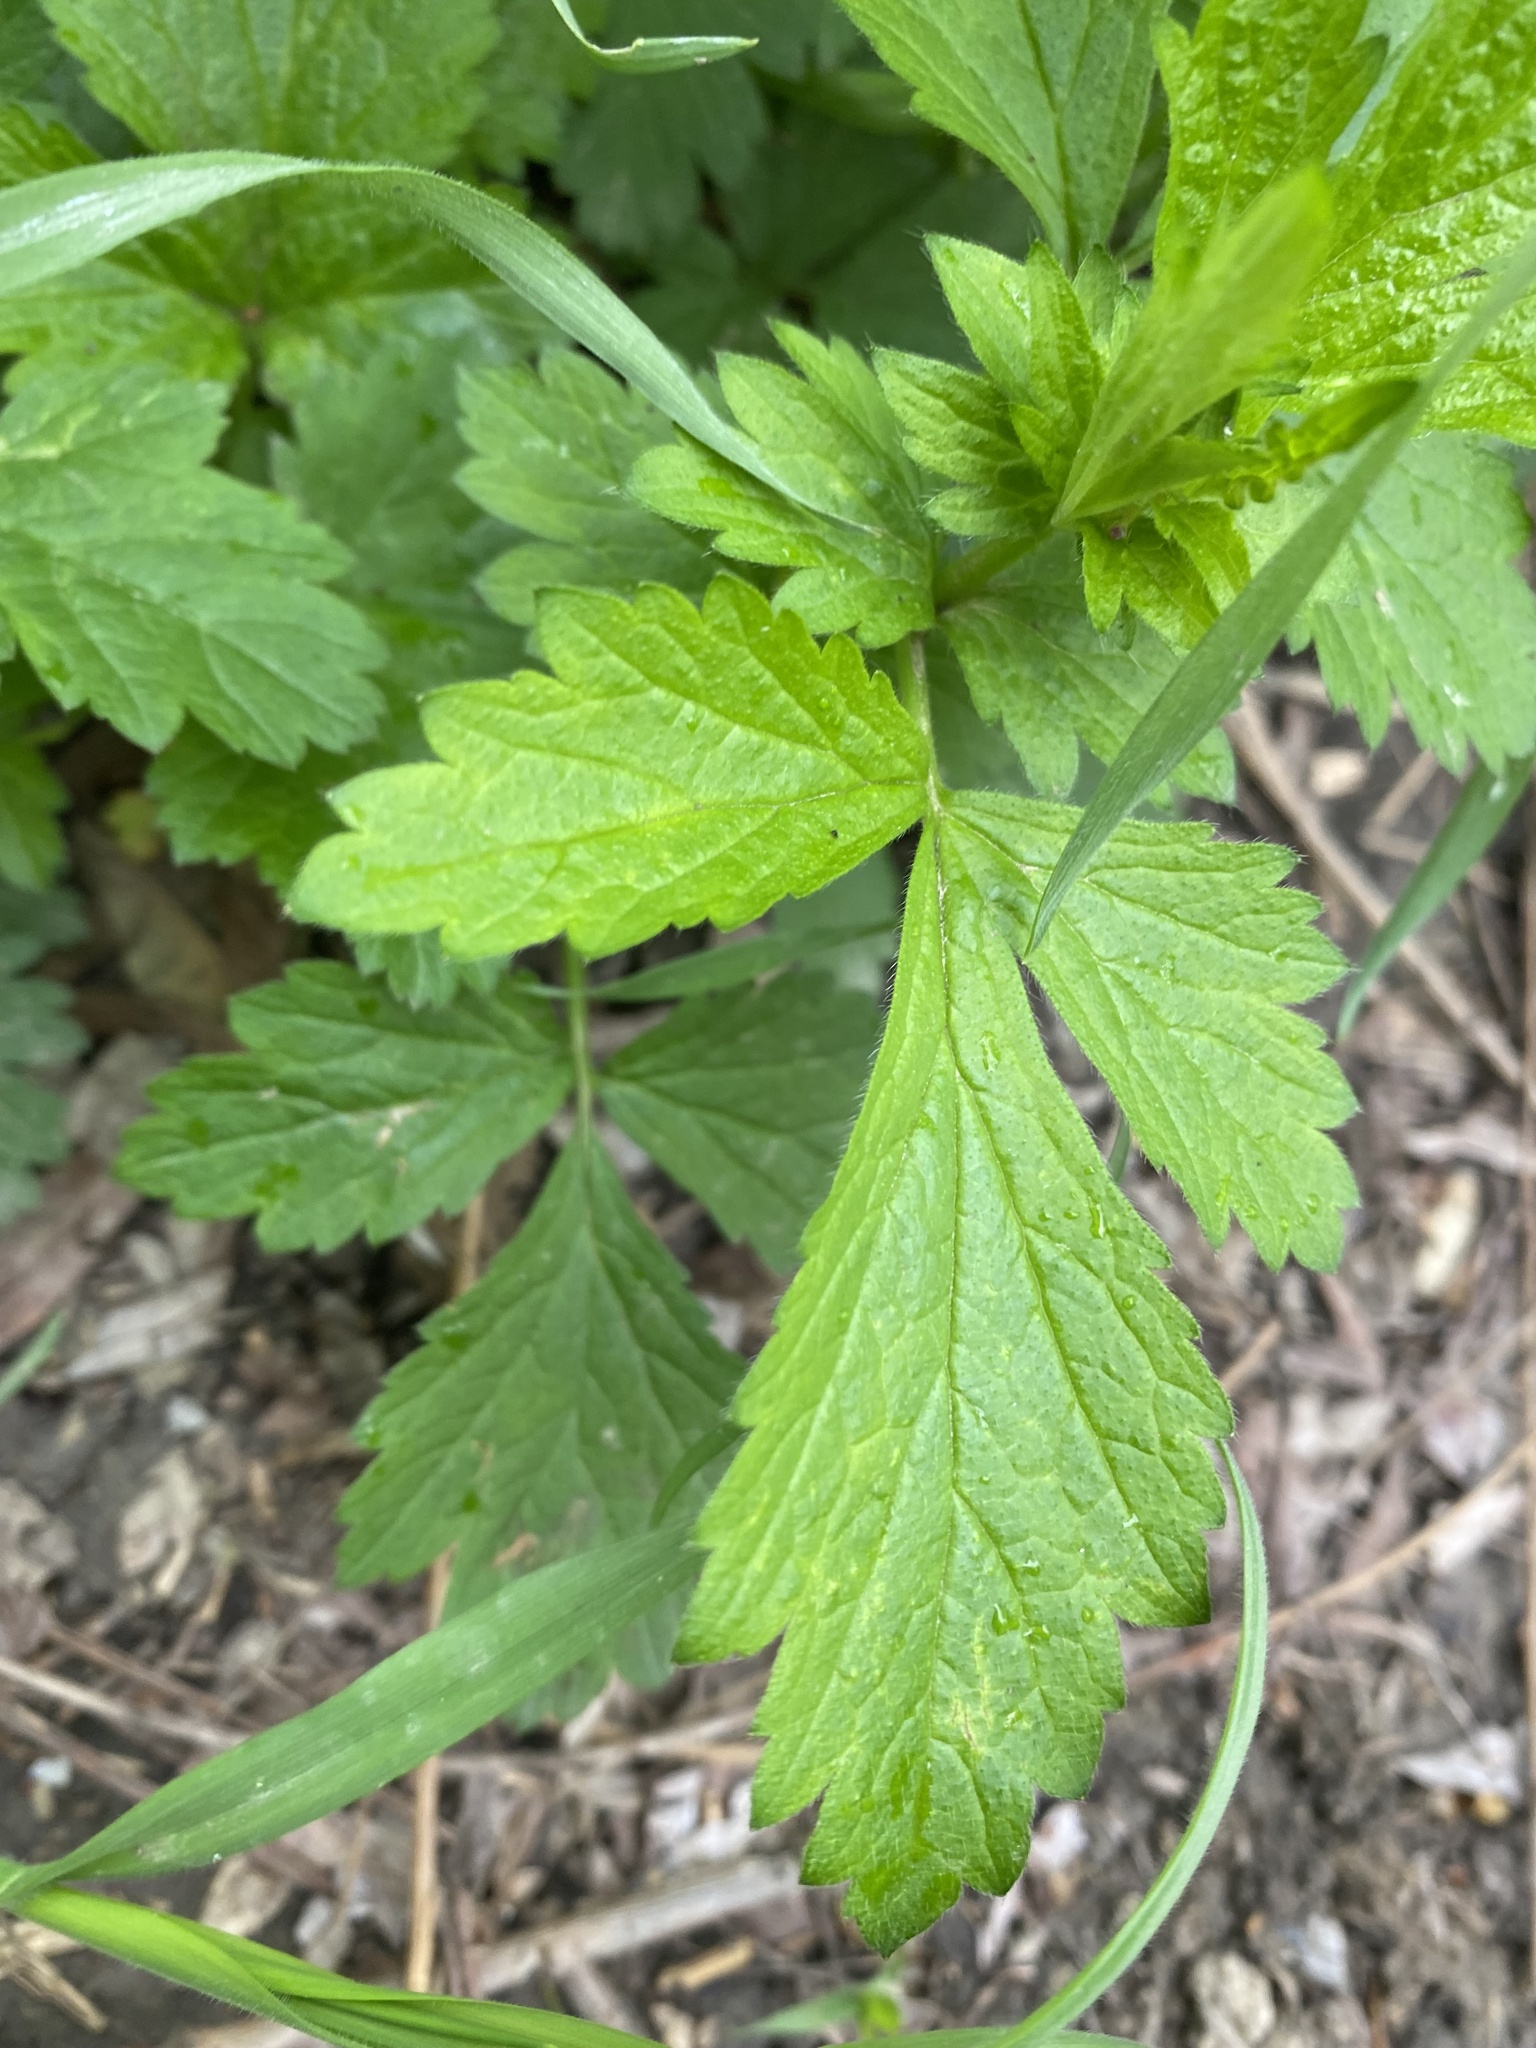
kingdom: Plantae
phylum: Tracheophyta
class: Magnoliopsida
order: Rosales
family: Rosaceae
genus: Geum
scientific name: Geum urbanum
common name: Wood avens
